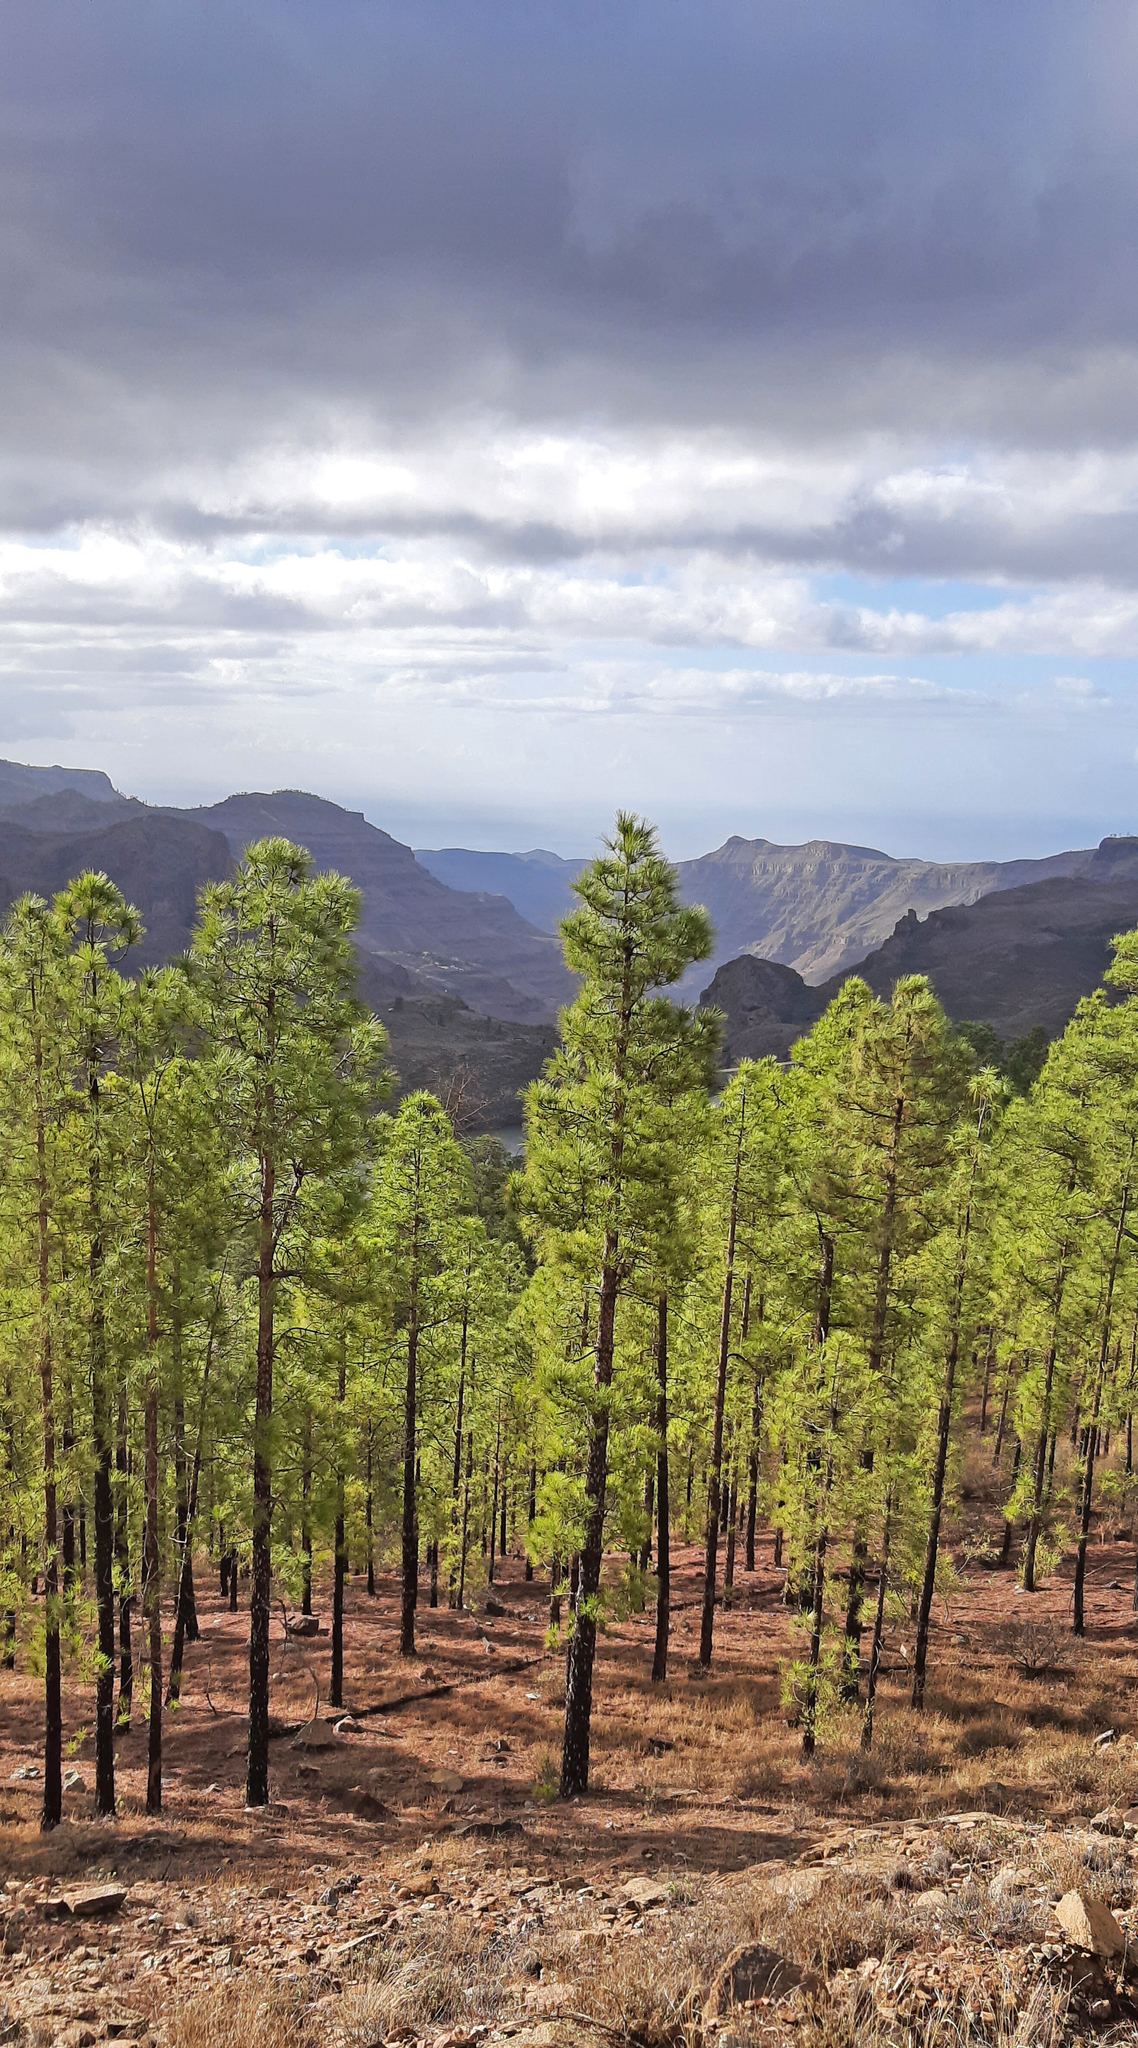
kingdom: Plantae
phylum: Tracheophyta
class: Pinopsida
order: Pinales
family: Pinaceae
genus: Pinus
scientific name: Pinus canariensis
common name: Canary islands pine
